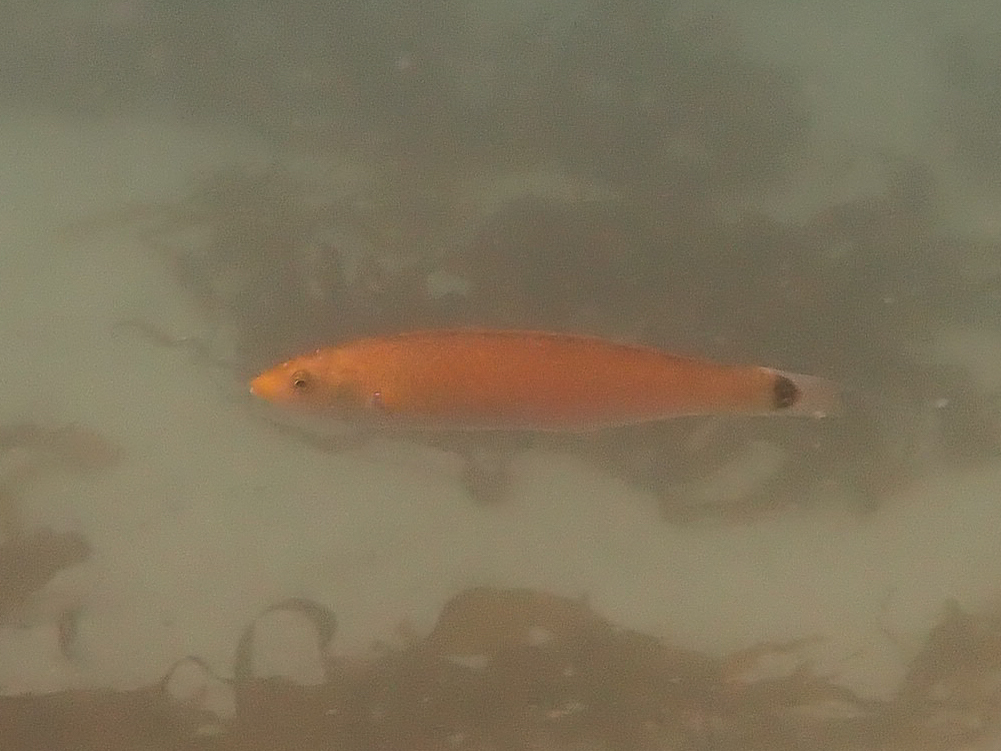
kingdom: Animalia
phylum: Chordata
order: Perciformes
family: Labridae
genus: Oxyjulis
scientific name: Oxyjulis californica
